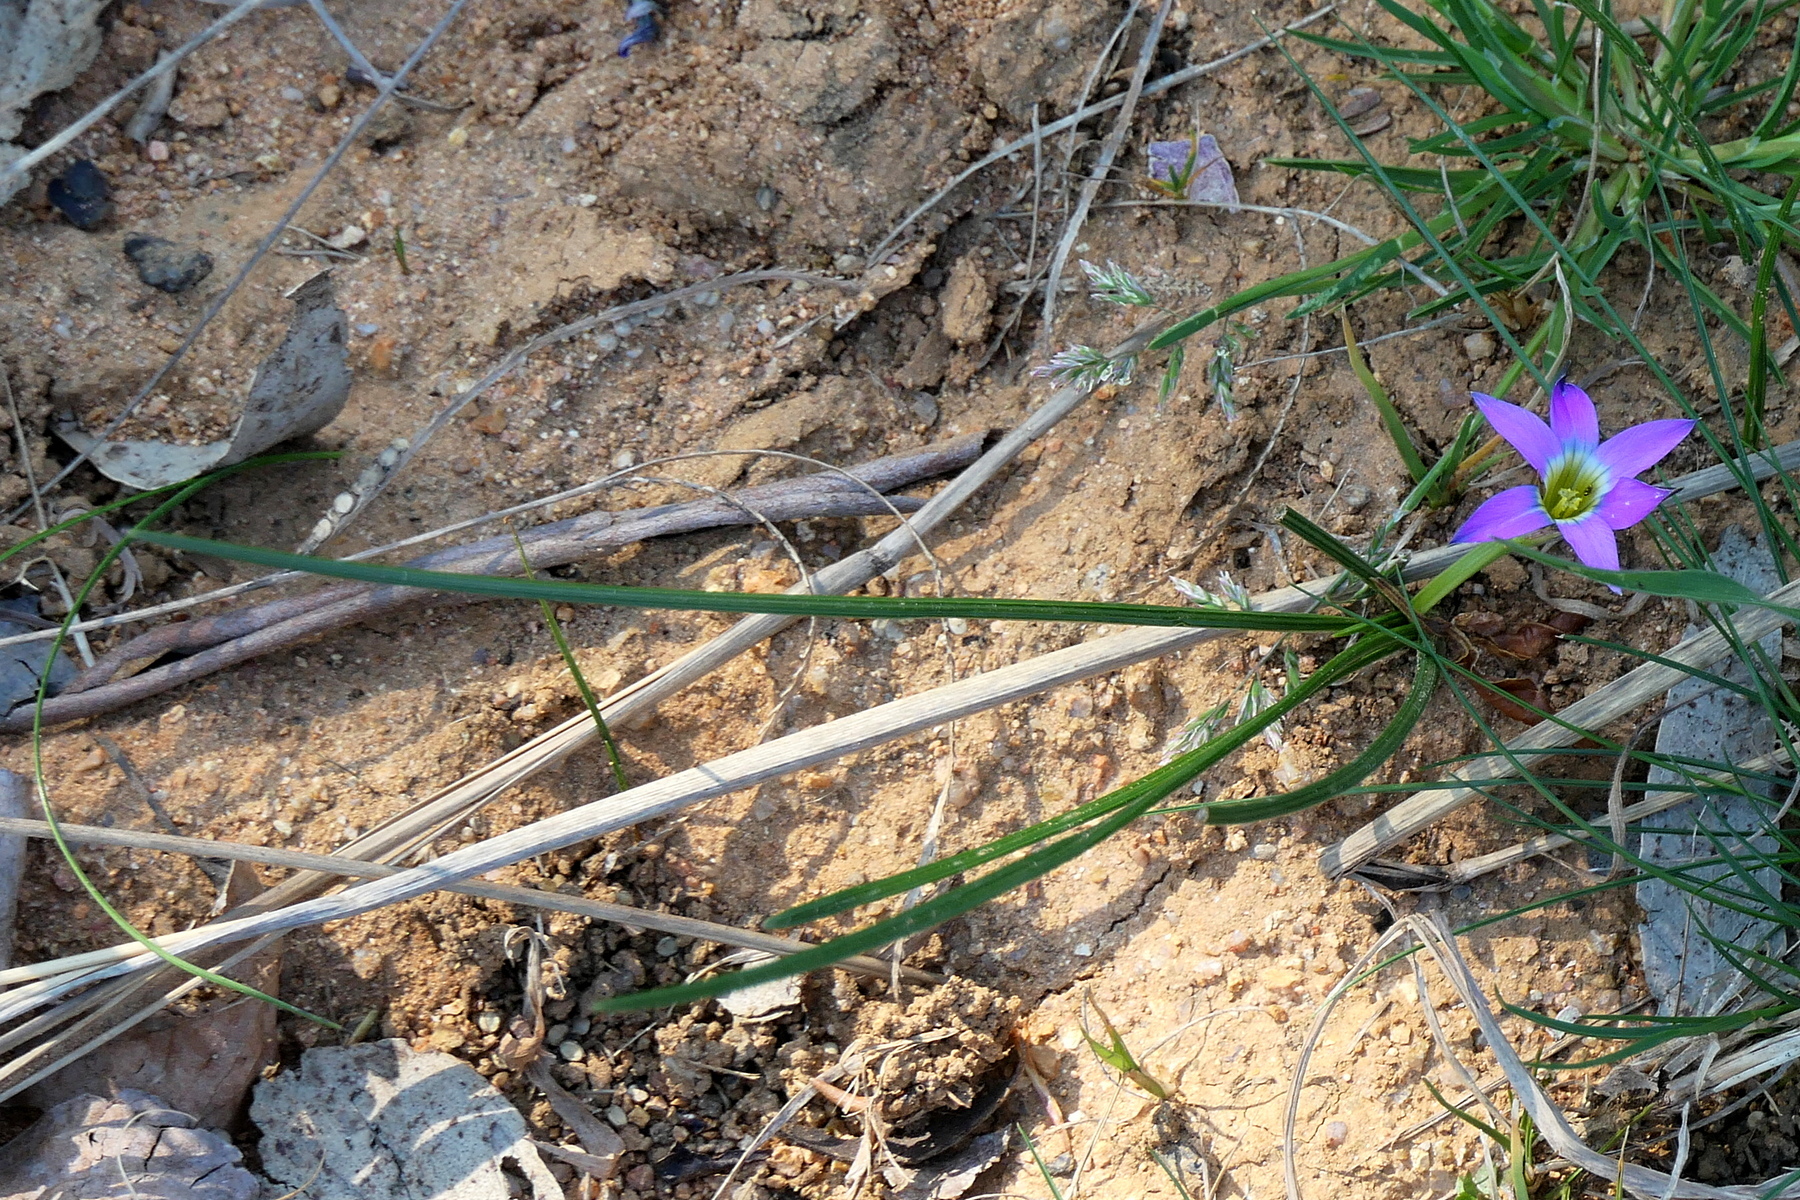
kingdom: Plantae
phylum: Tracheophyta
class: Liliopsida
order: Asparagales
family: Iridaceae
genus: Romulea
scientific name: Romulea rosea
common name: Oniongrass
